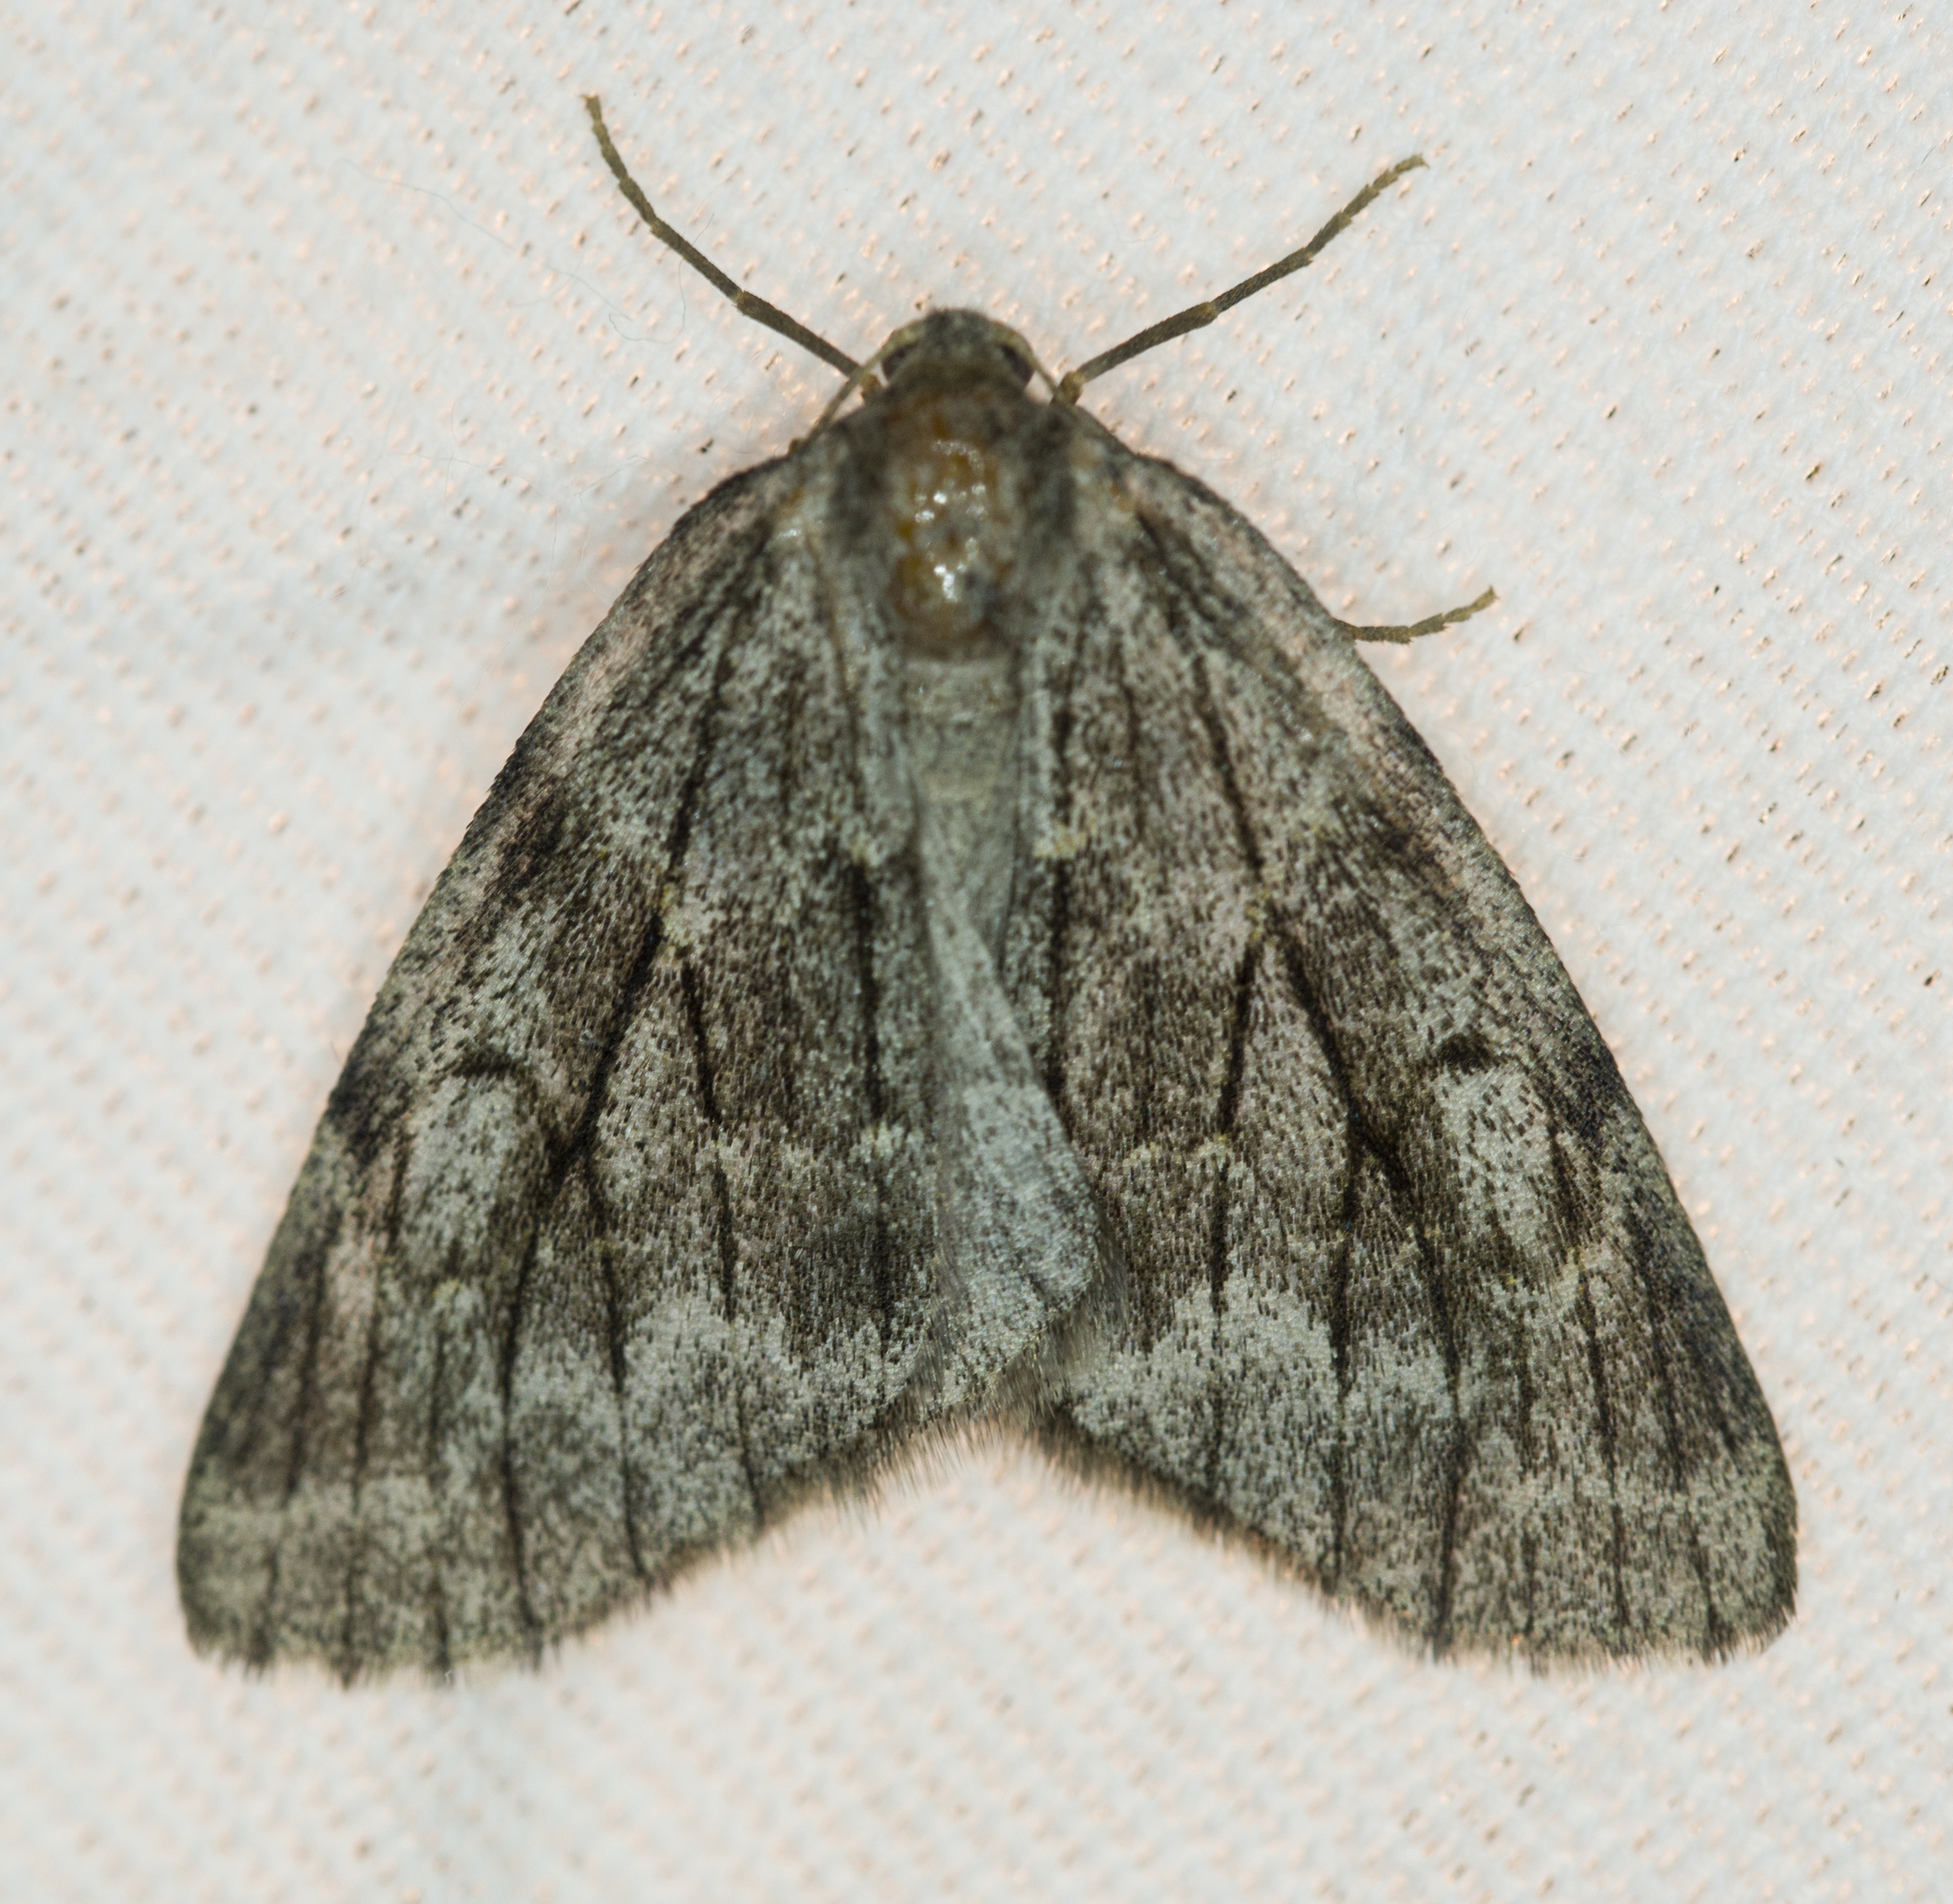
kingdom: Animalia
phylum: Arthropoda
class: Insecta
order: Lepidoptera
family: Geometridae
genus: Nepytia
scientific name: Nepytia swetti
